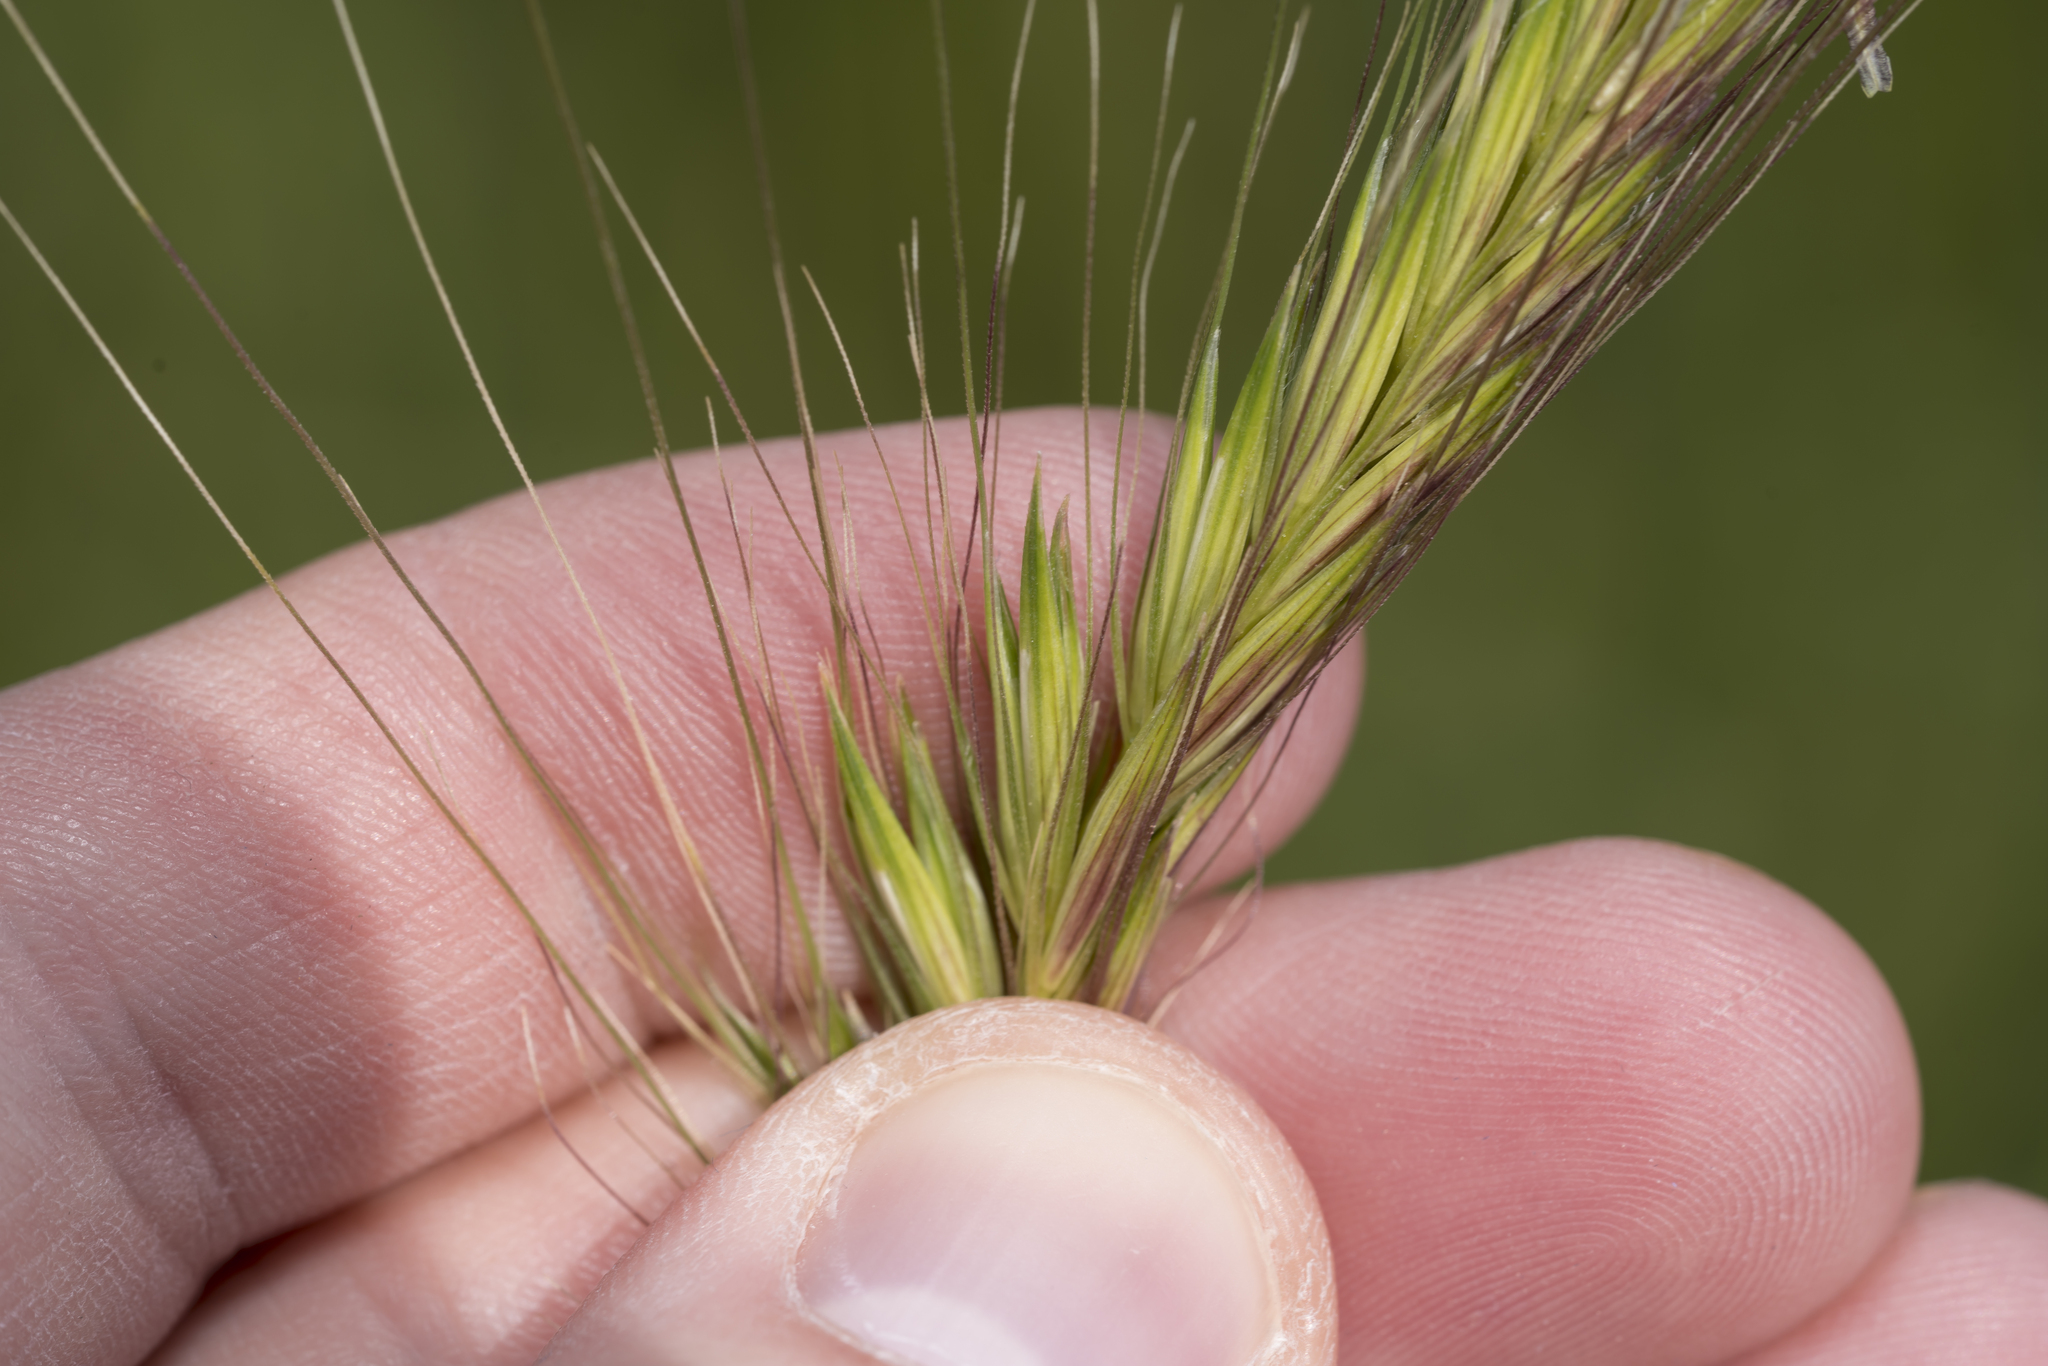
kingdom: Plantae
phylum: Tracheophyta
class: Liliopsida
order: Poales
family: Poaceae
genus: Hordeum
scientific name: Hordeum bulbosum
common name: Bulbous barley
